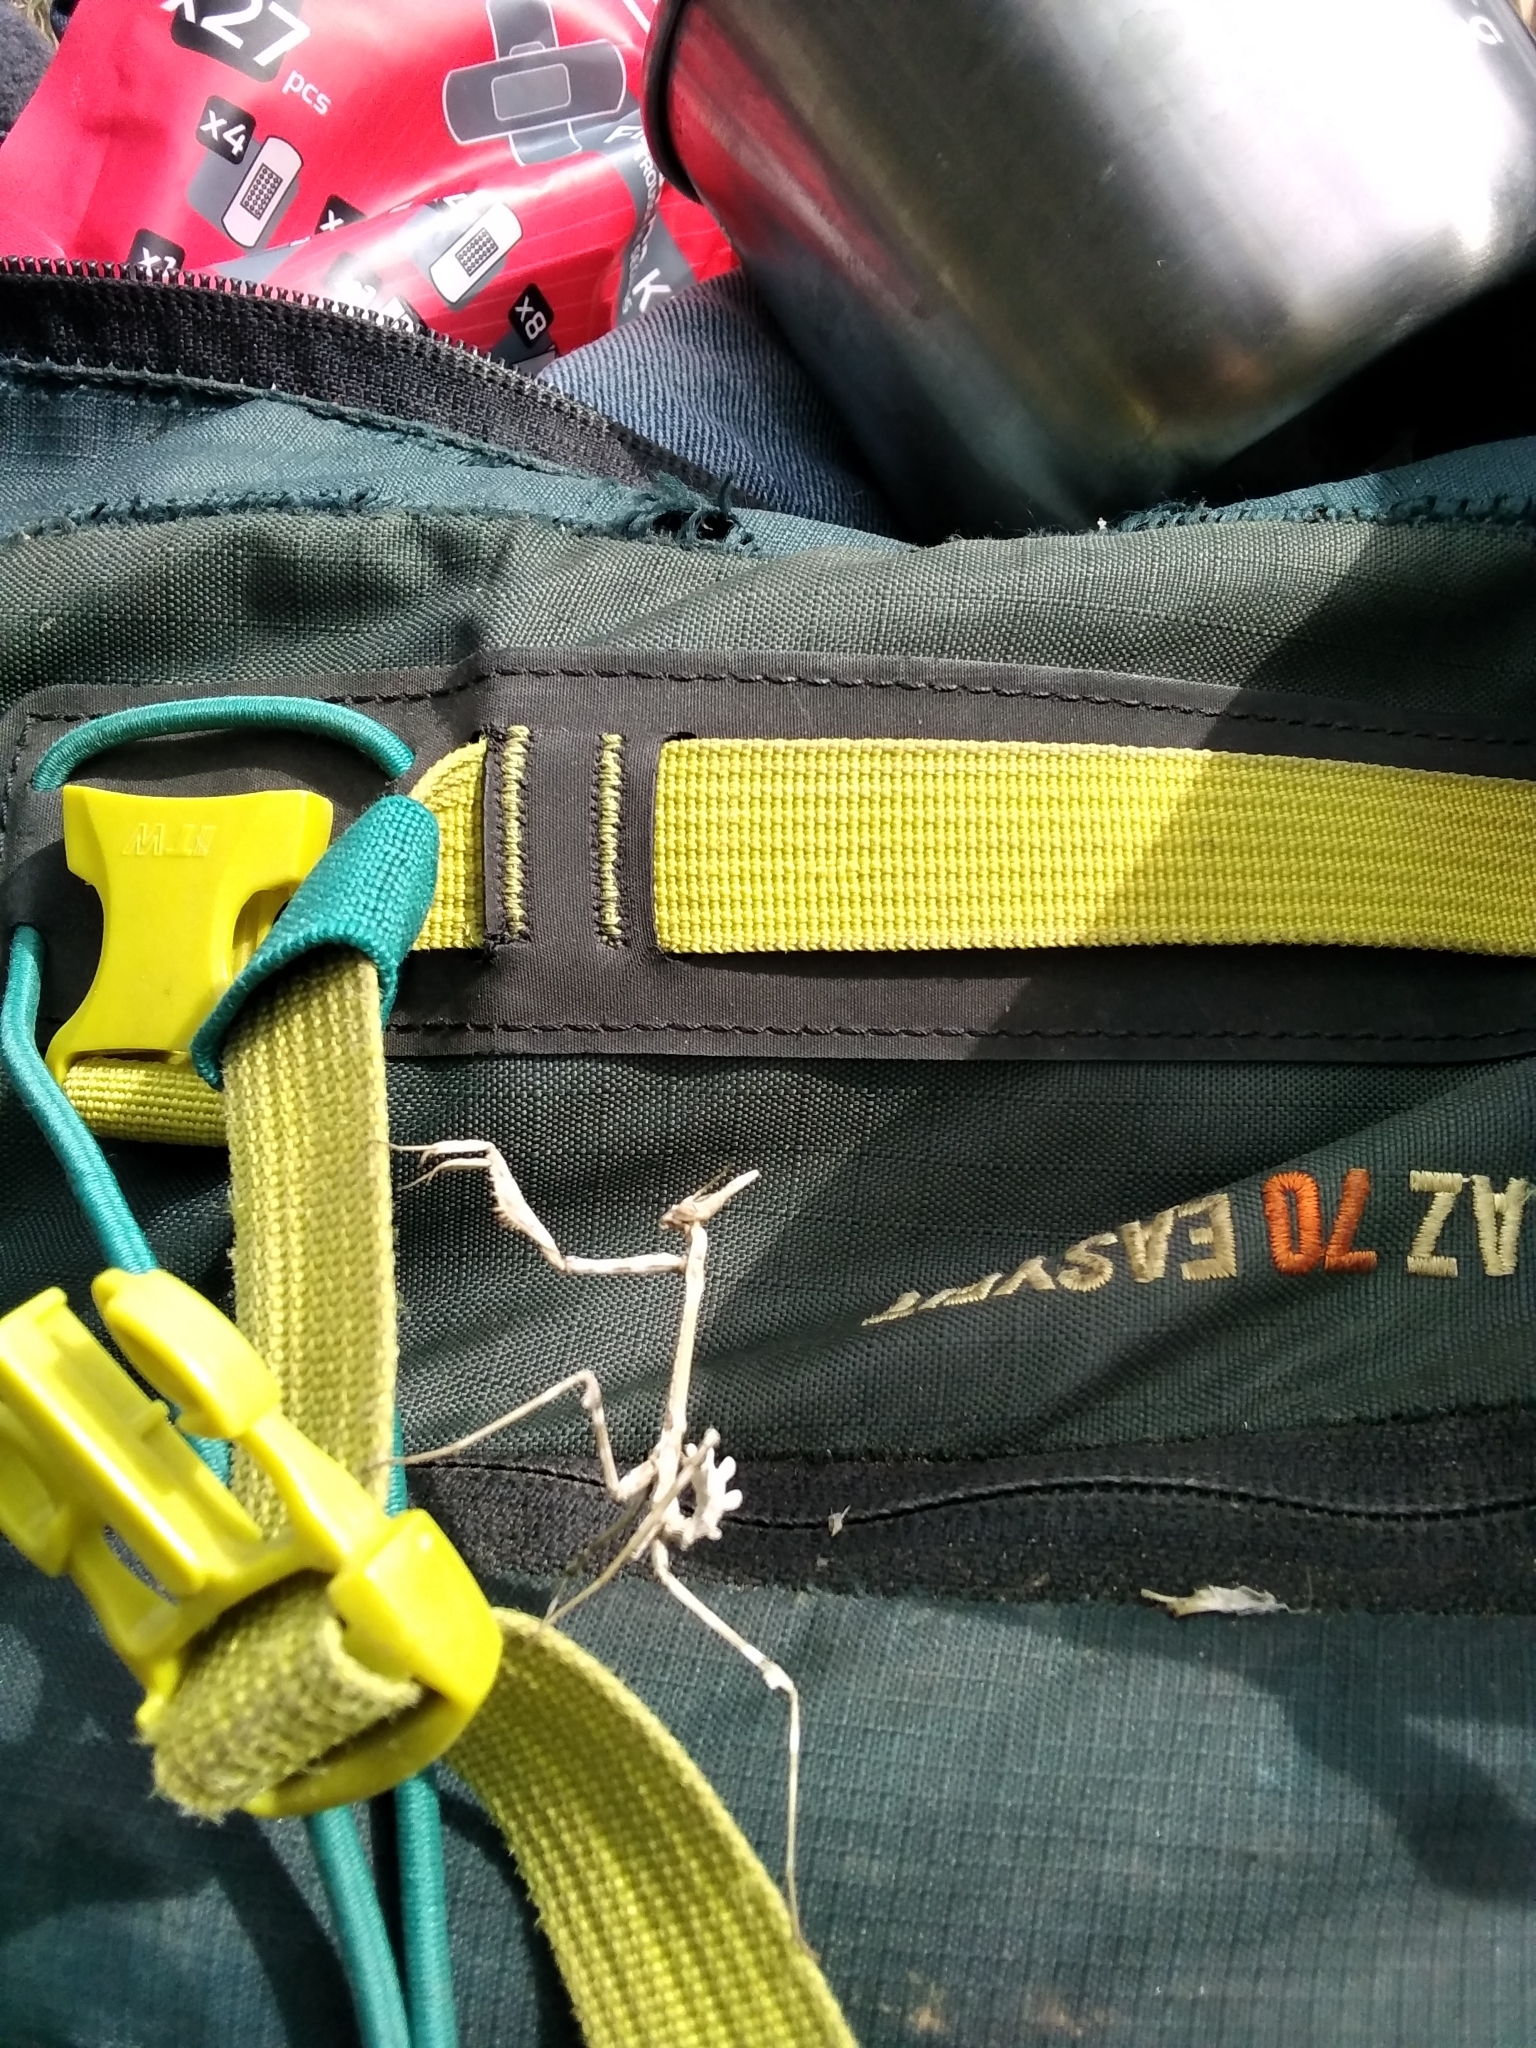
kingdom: Animalia
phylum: Arthropoda
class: Insecta
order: Mantodea
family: Empusidae
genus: Empusa
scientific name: Empusa pennata
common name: Conehead mantis
